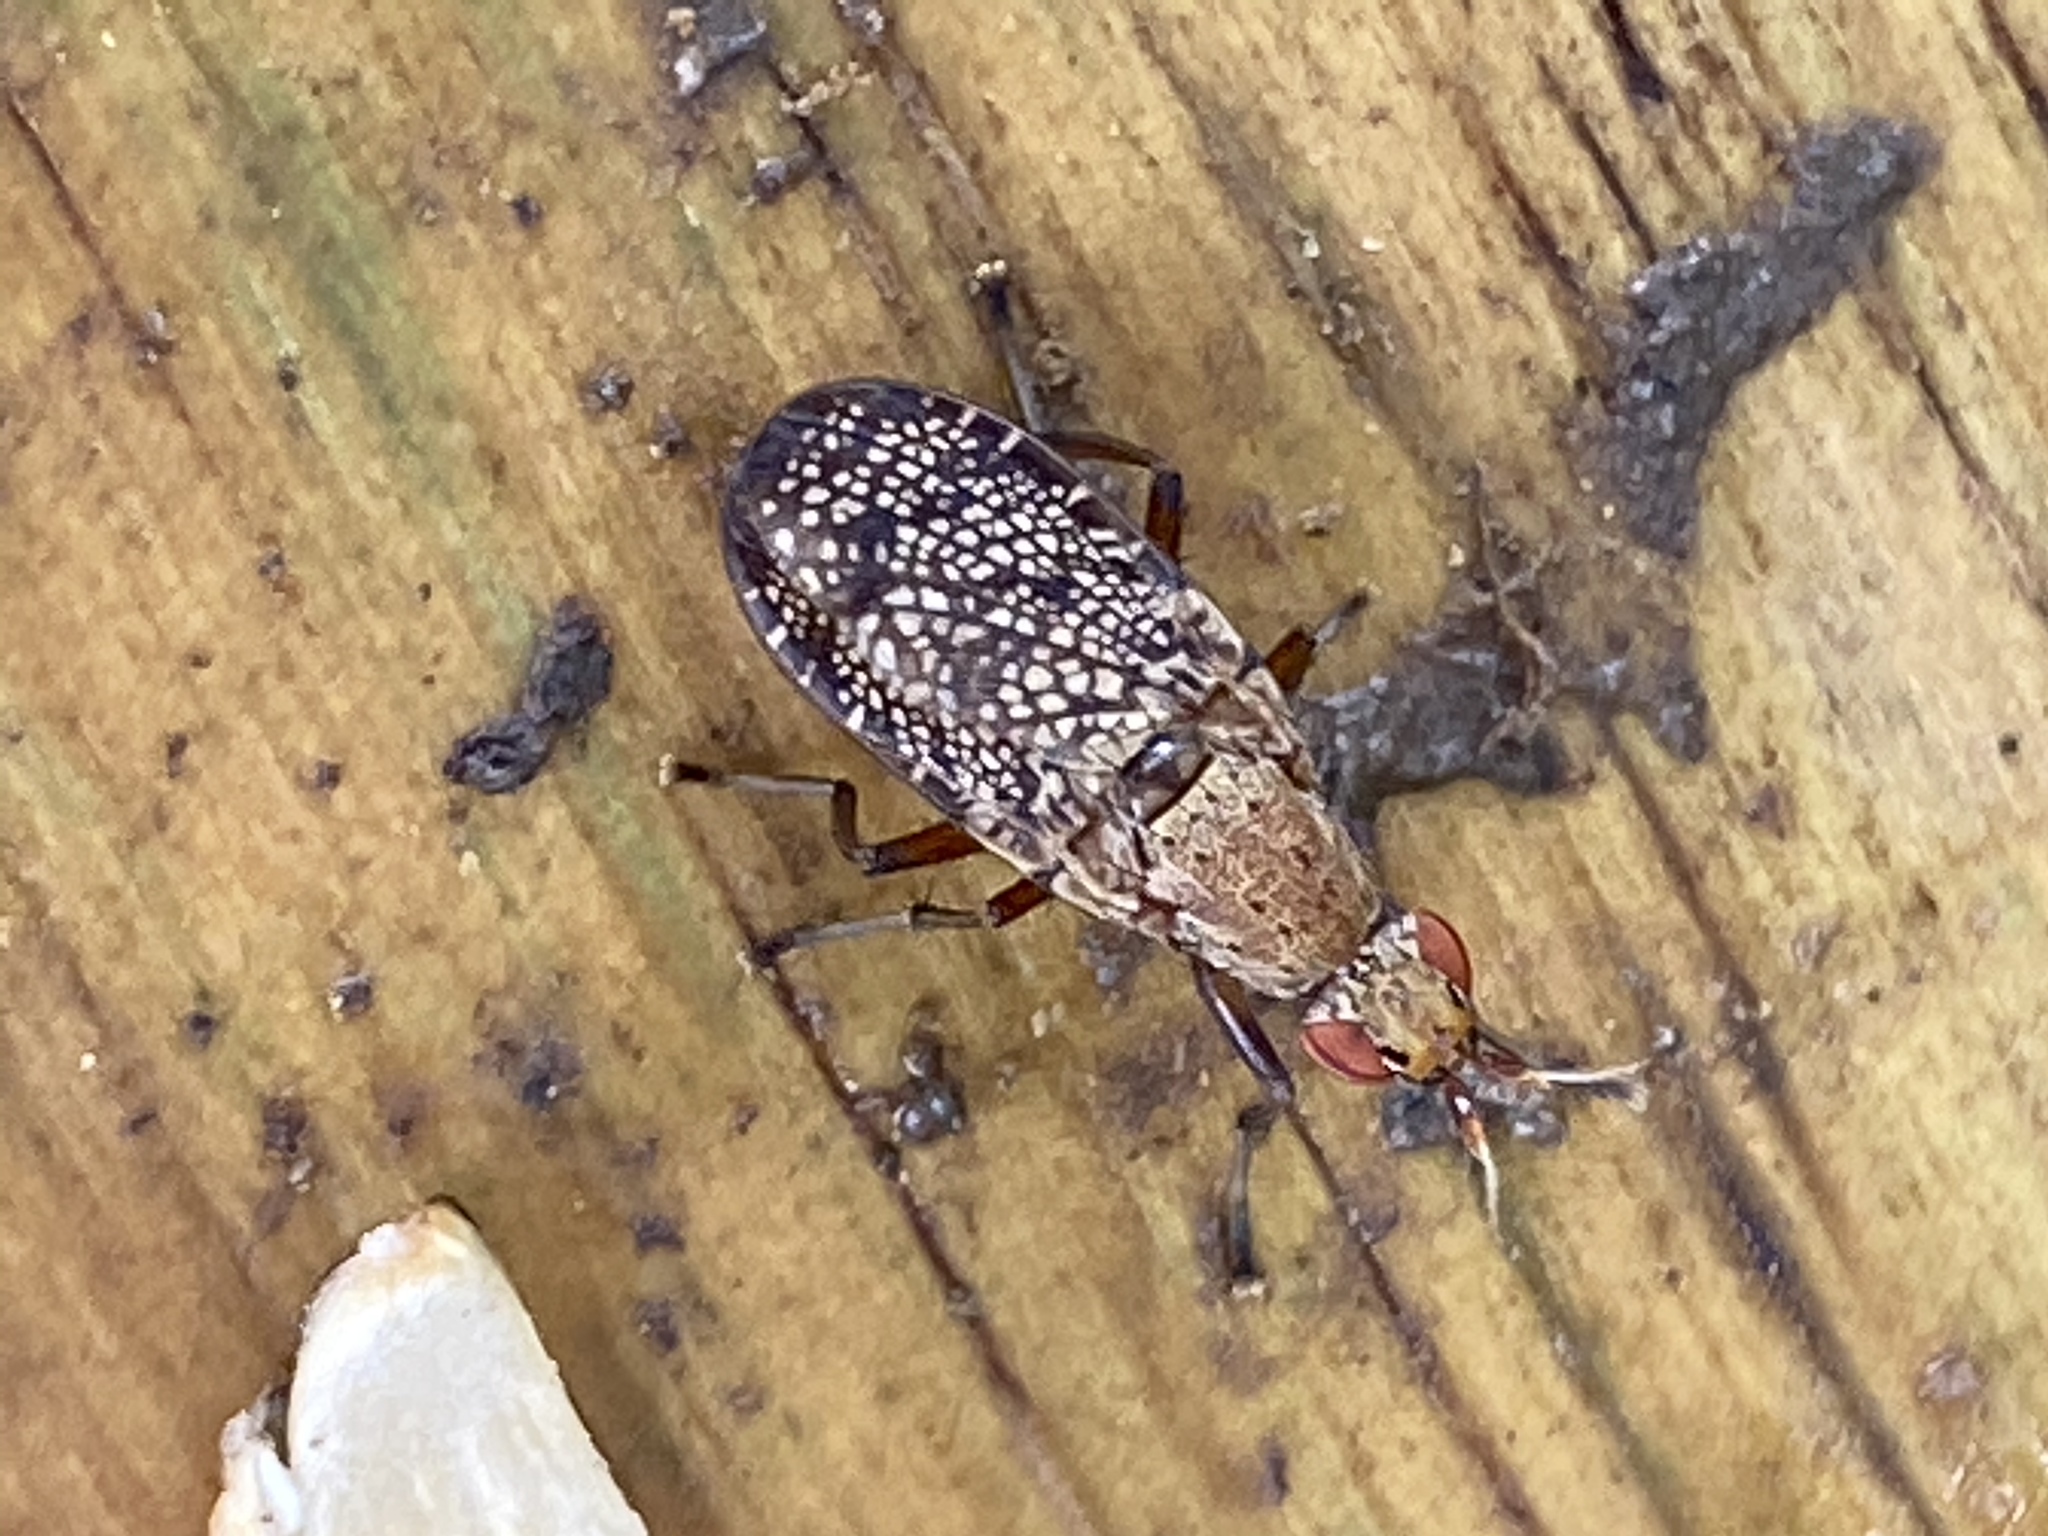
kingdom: Animalia
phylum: Arthropoda
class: Insecta
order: Diptera
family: Sciomyzidae
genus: Euthycera
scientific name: Euthycera flavescens
